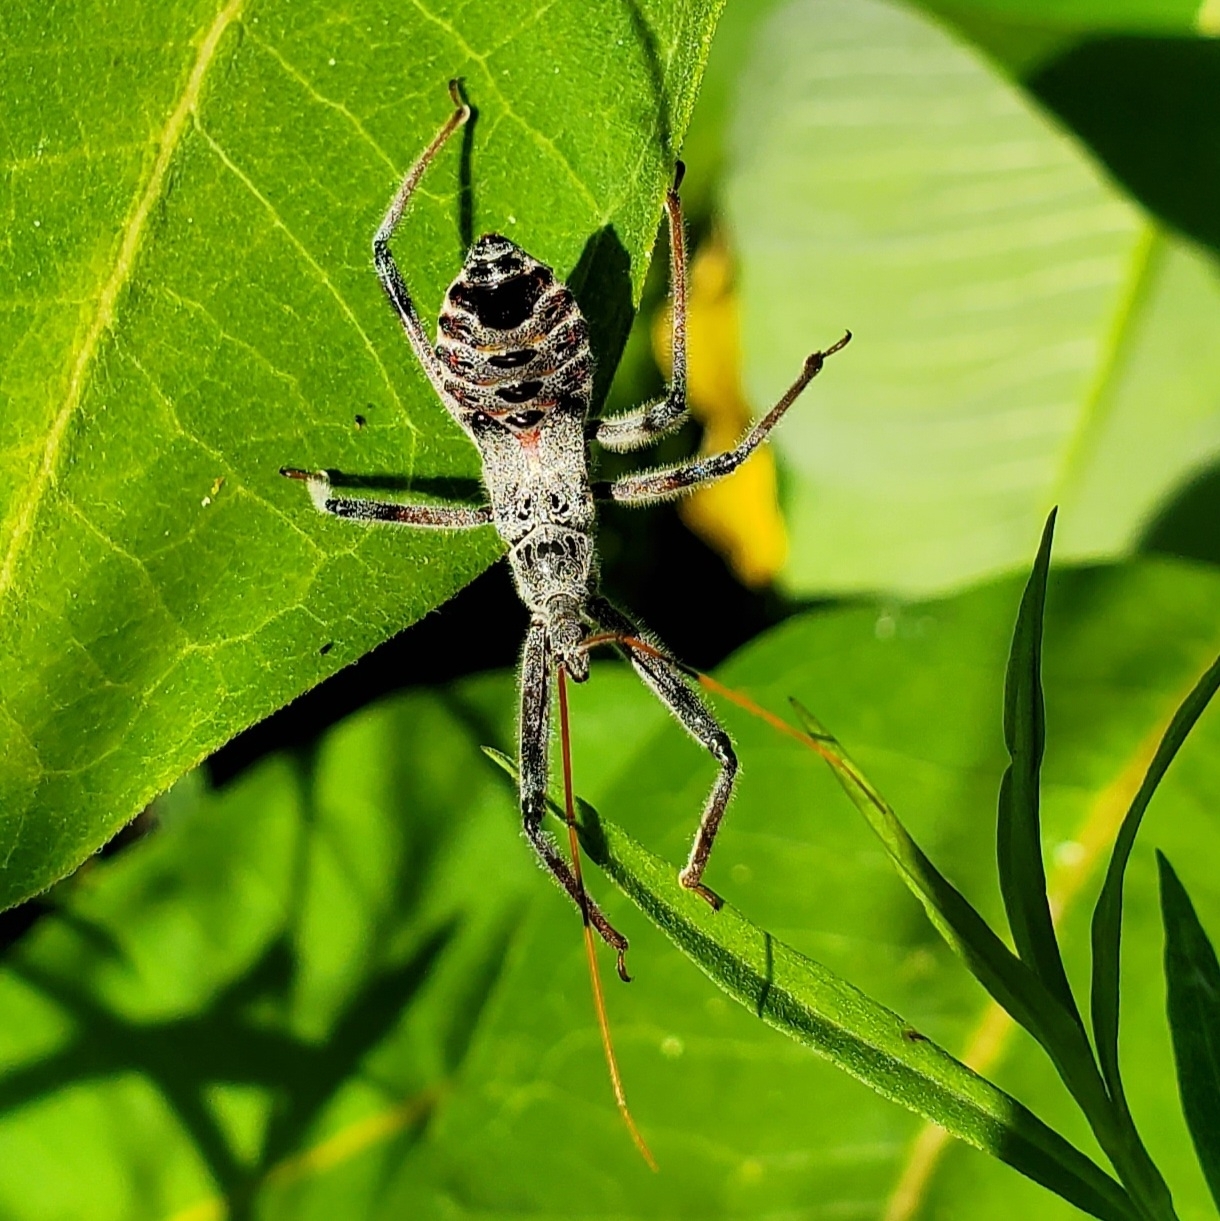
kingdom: Animalia
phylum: Arthropoda
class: Insecta
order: Hemiptera
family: Reduviidae
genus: Arilus
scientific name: Arilus cristatus
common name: North american wheel bug
